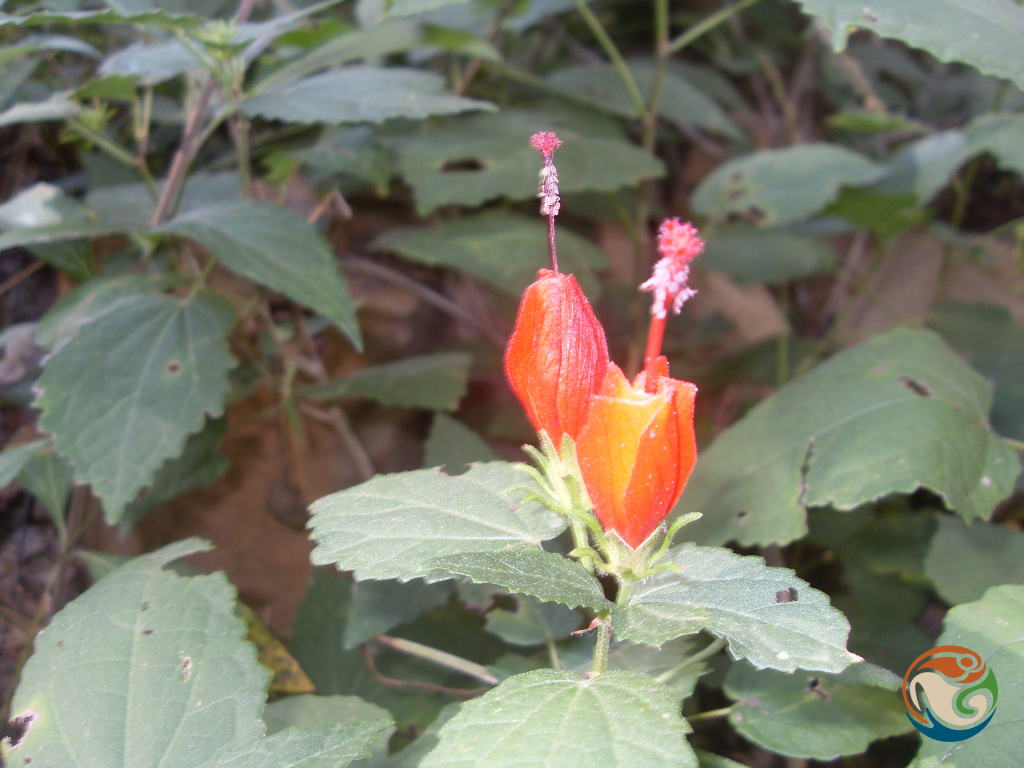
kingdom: Plantae
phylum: Tracheophyta
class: Magnoliopsida
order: Malvales
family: Malvaceae
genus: Malvaviscus
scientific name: Malvaviscus arboreus
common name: Wax mallow
